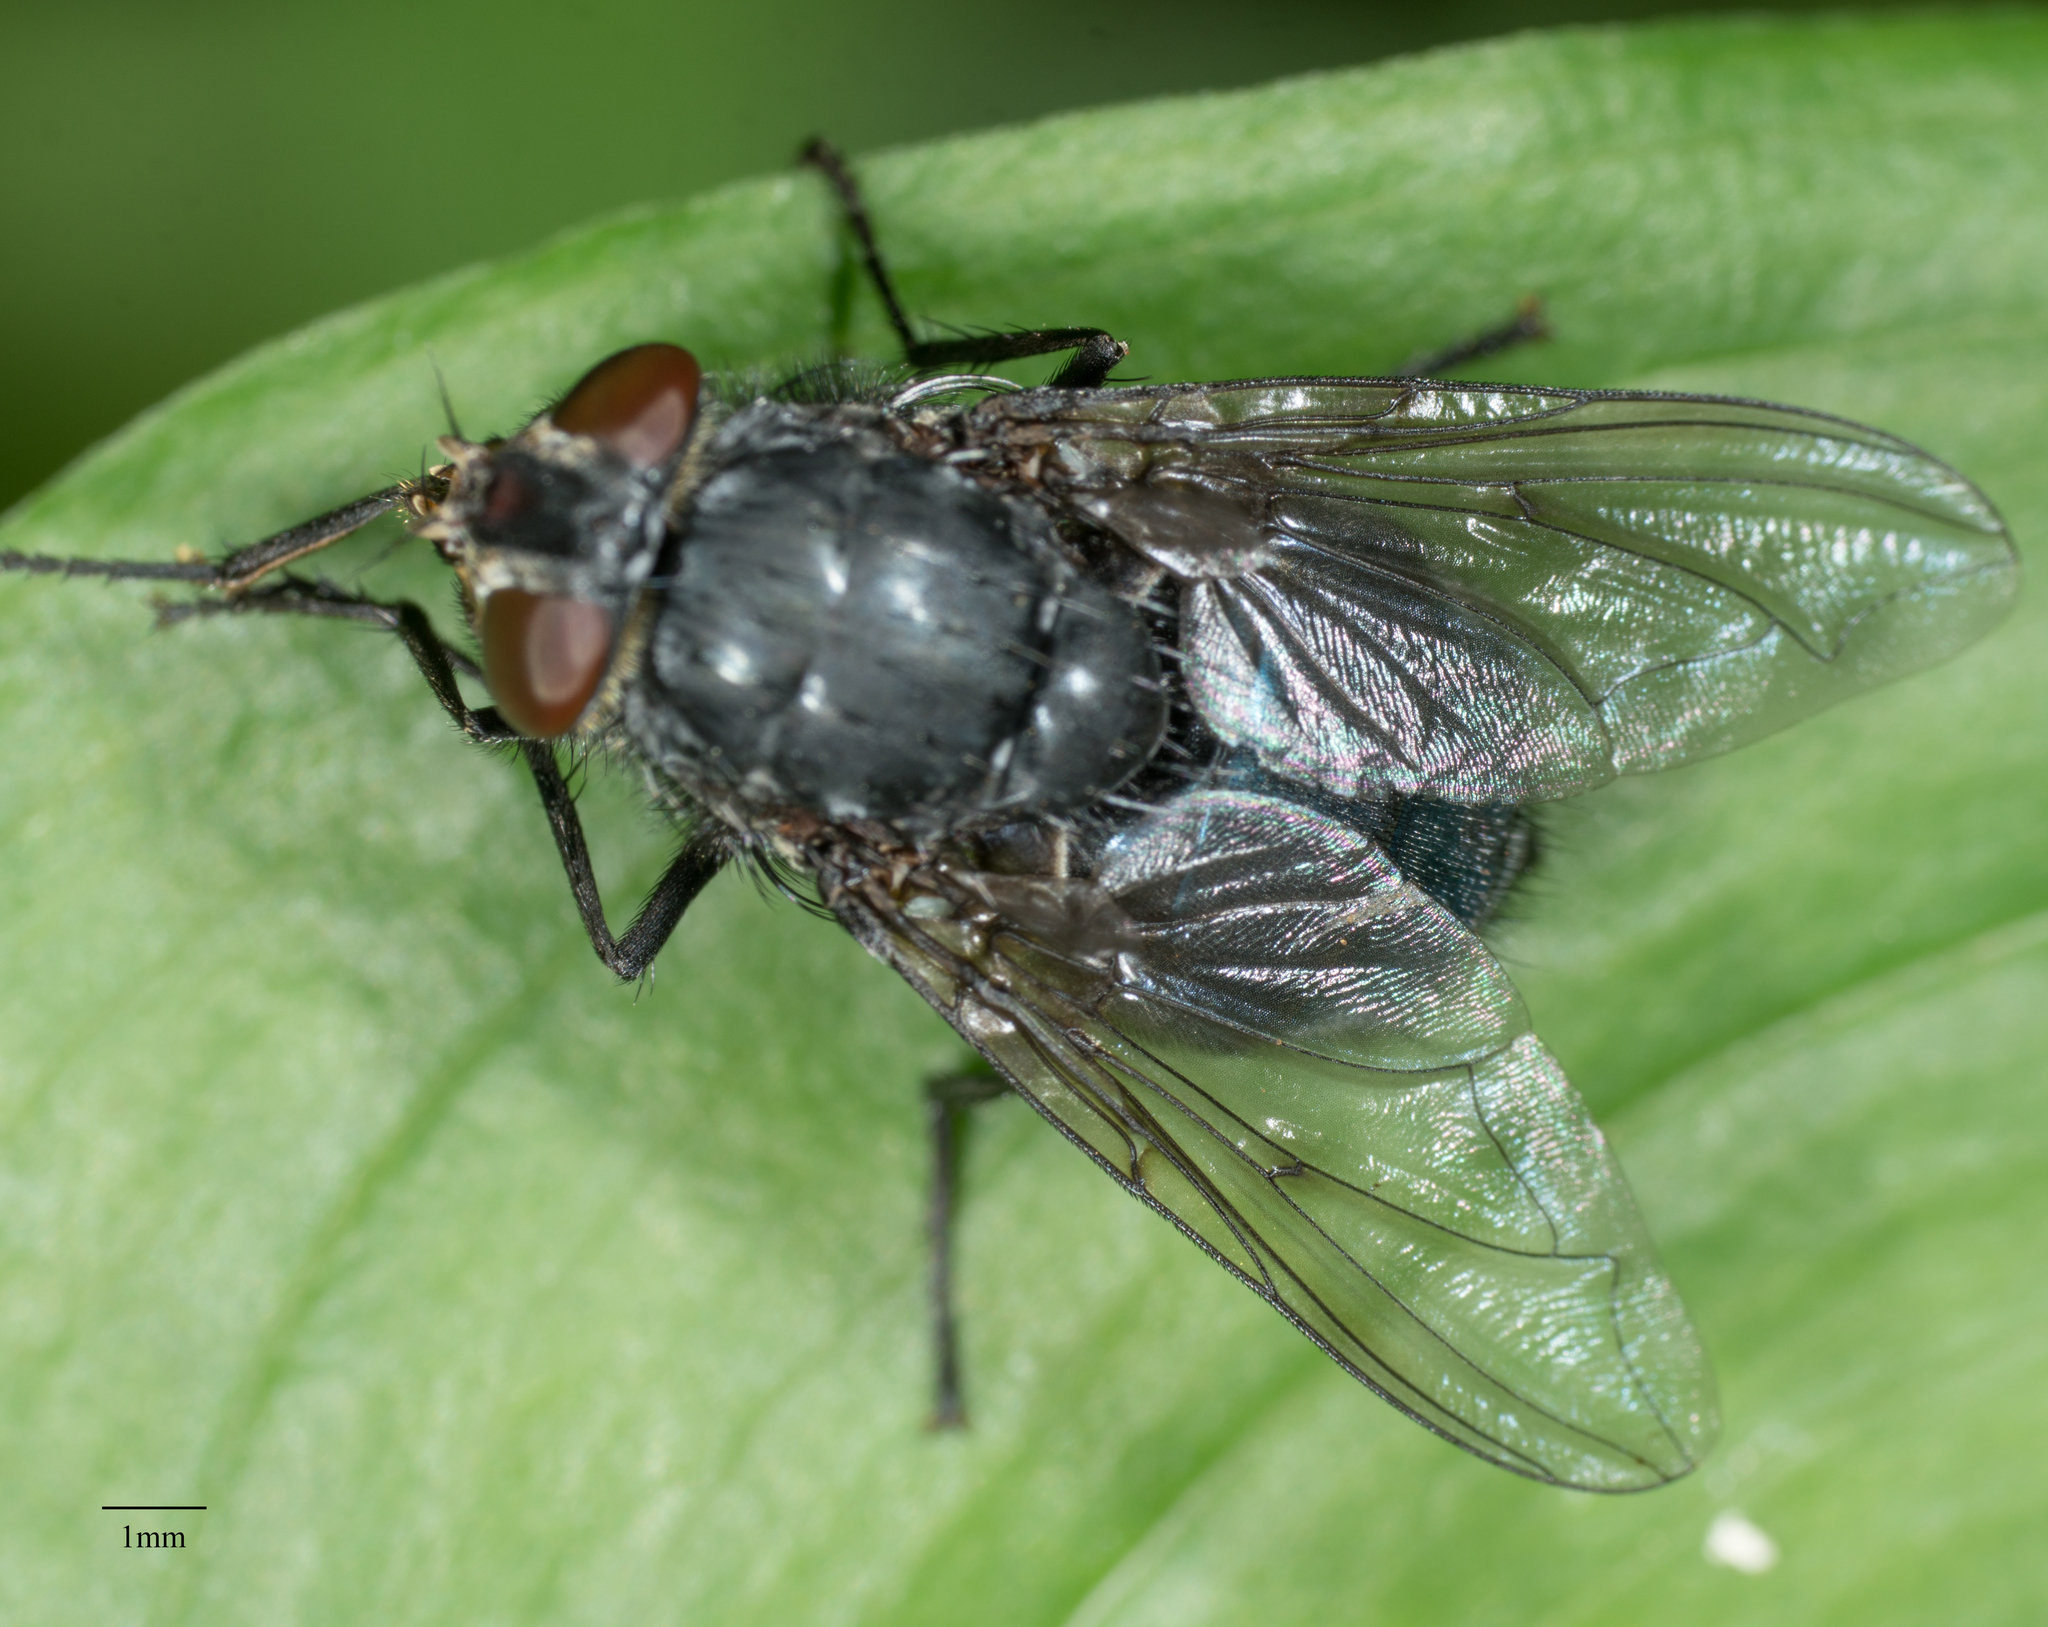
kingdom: Animalia
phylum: Arthropoda
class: Insecta
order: Diptera
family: Calliphoridae
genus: Calliphora
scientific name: Calliphora vomitoria
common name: Blue bottle fly
